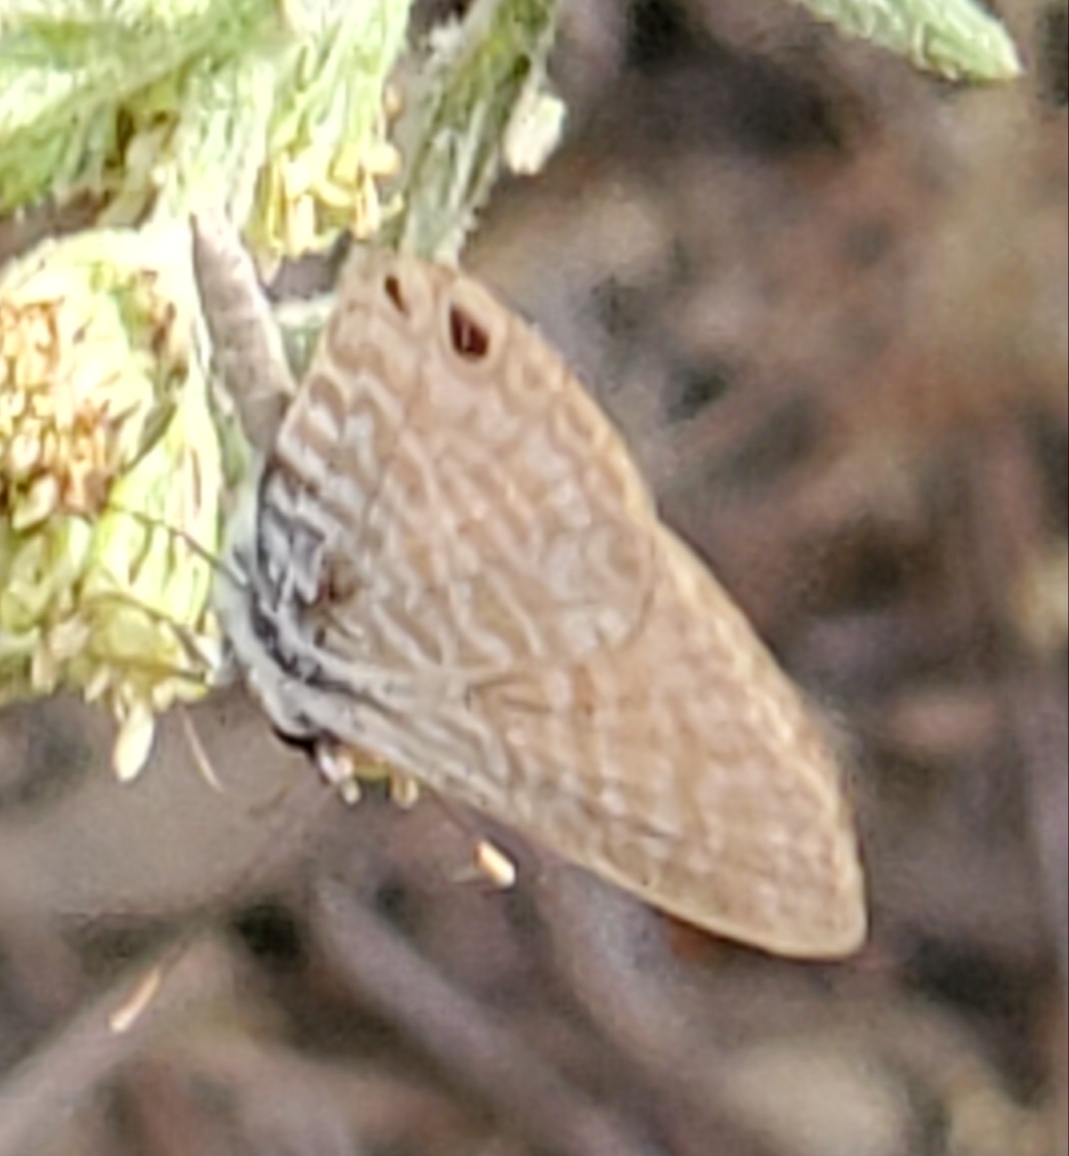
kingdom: Animalia
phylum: Arthropoda
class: Insecta
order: Lepidoptera
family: Lycaenidae
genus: Leptotes
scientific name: Leptotes marina
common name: Marine blue
